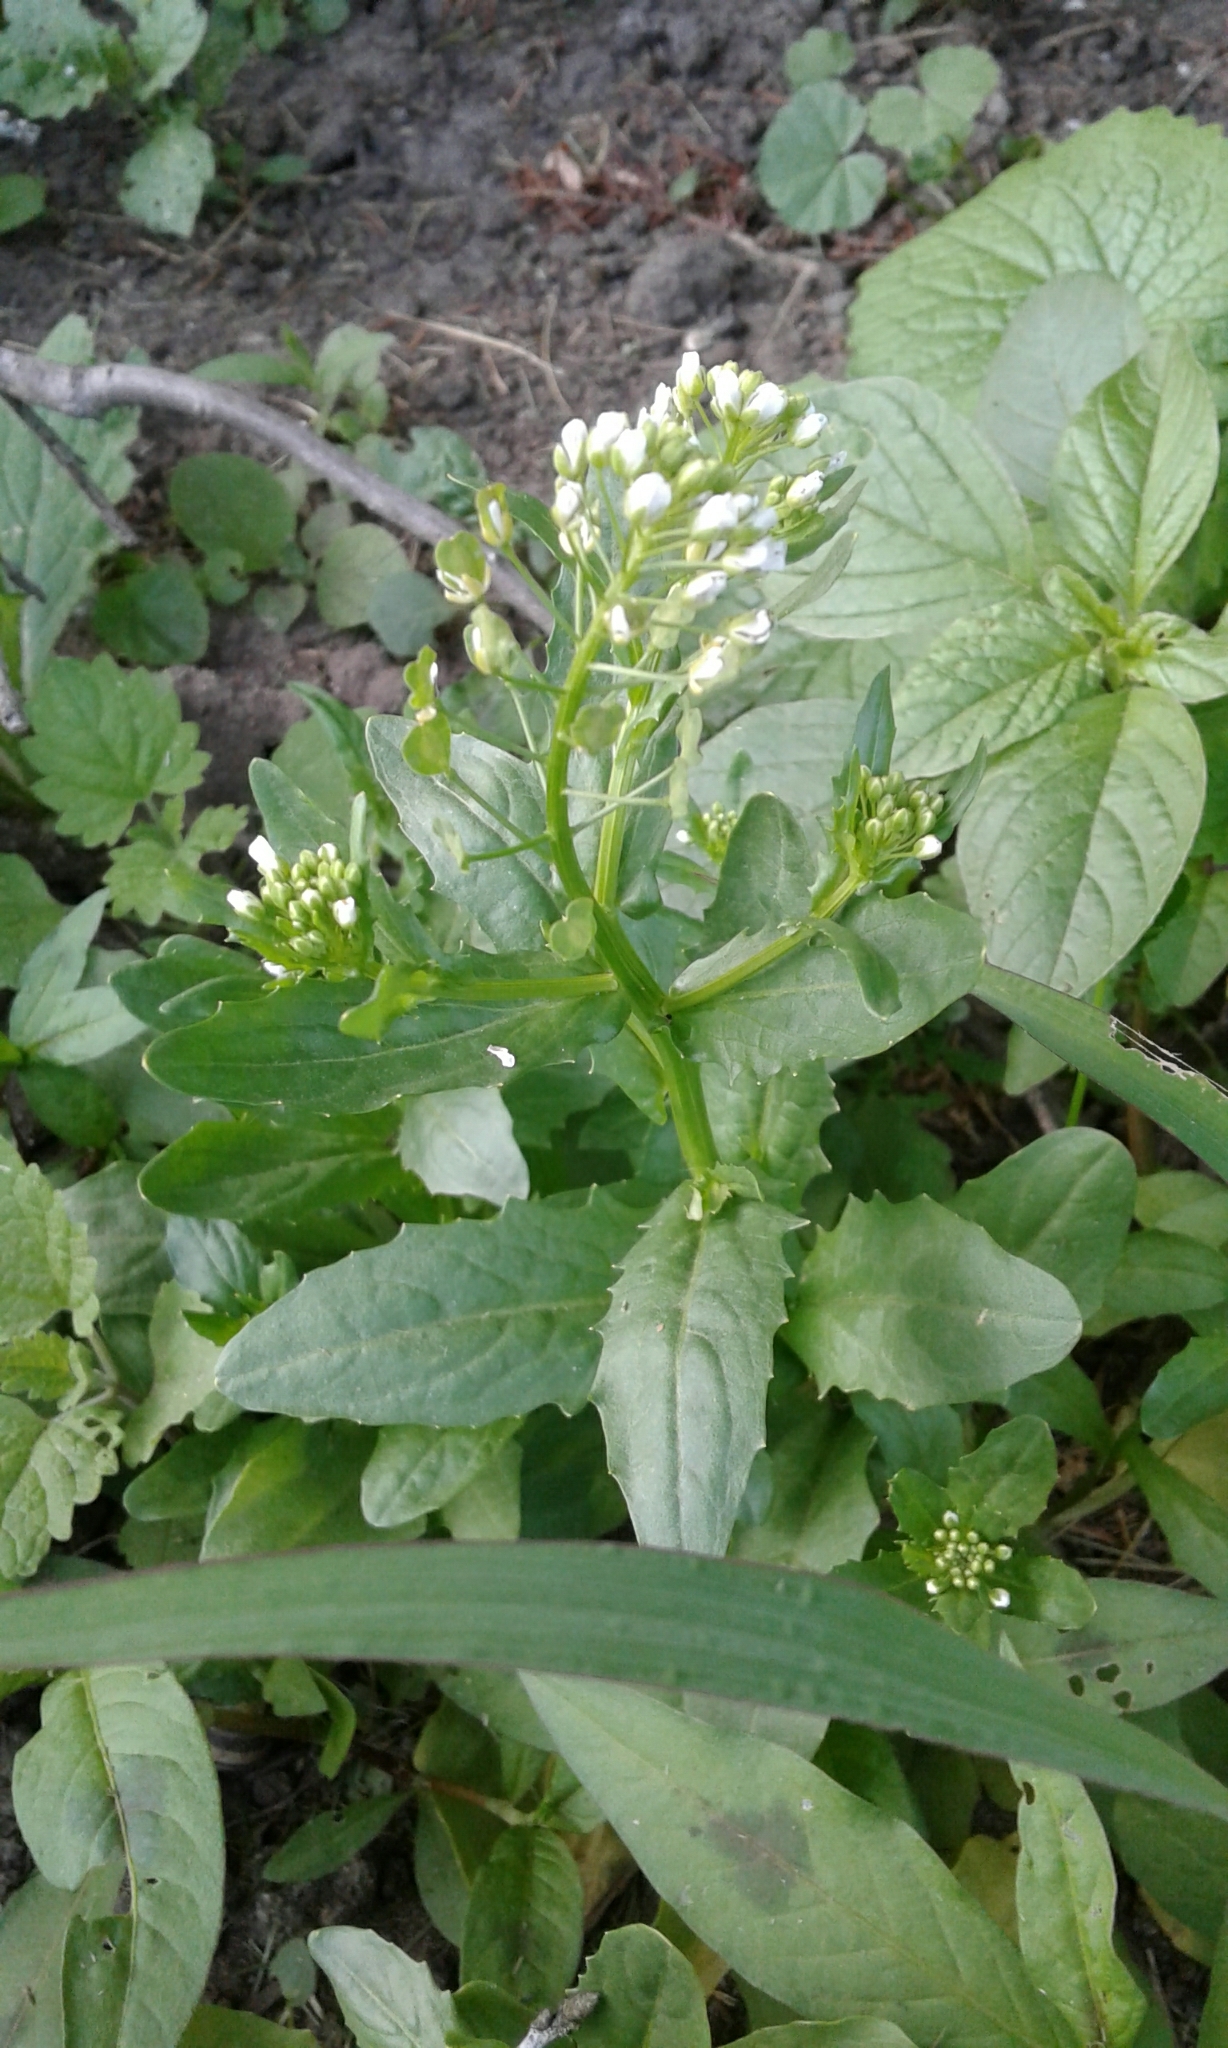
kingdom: Plantae
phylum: Tracheophyta
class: Magnoliopsida
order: Brassicales
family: Brassicaceae
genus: Thlaspi
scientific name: Thlaspi arvense
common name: Field pennycress
